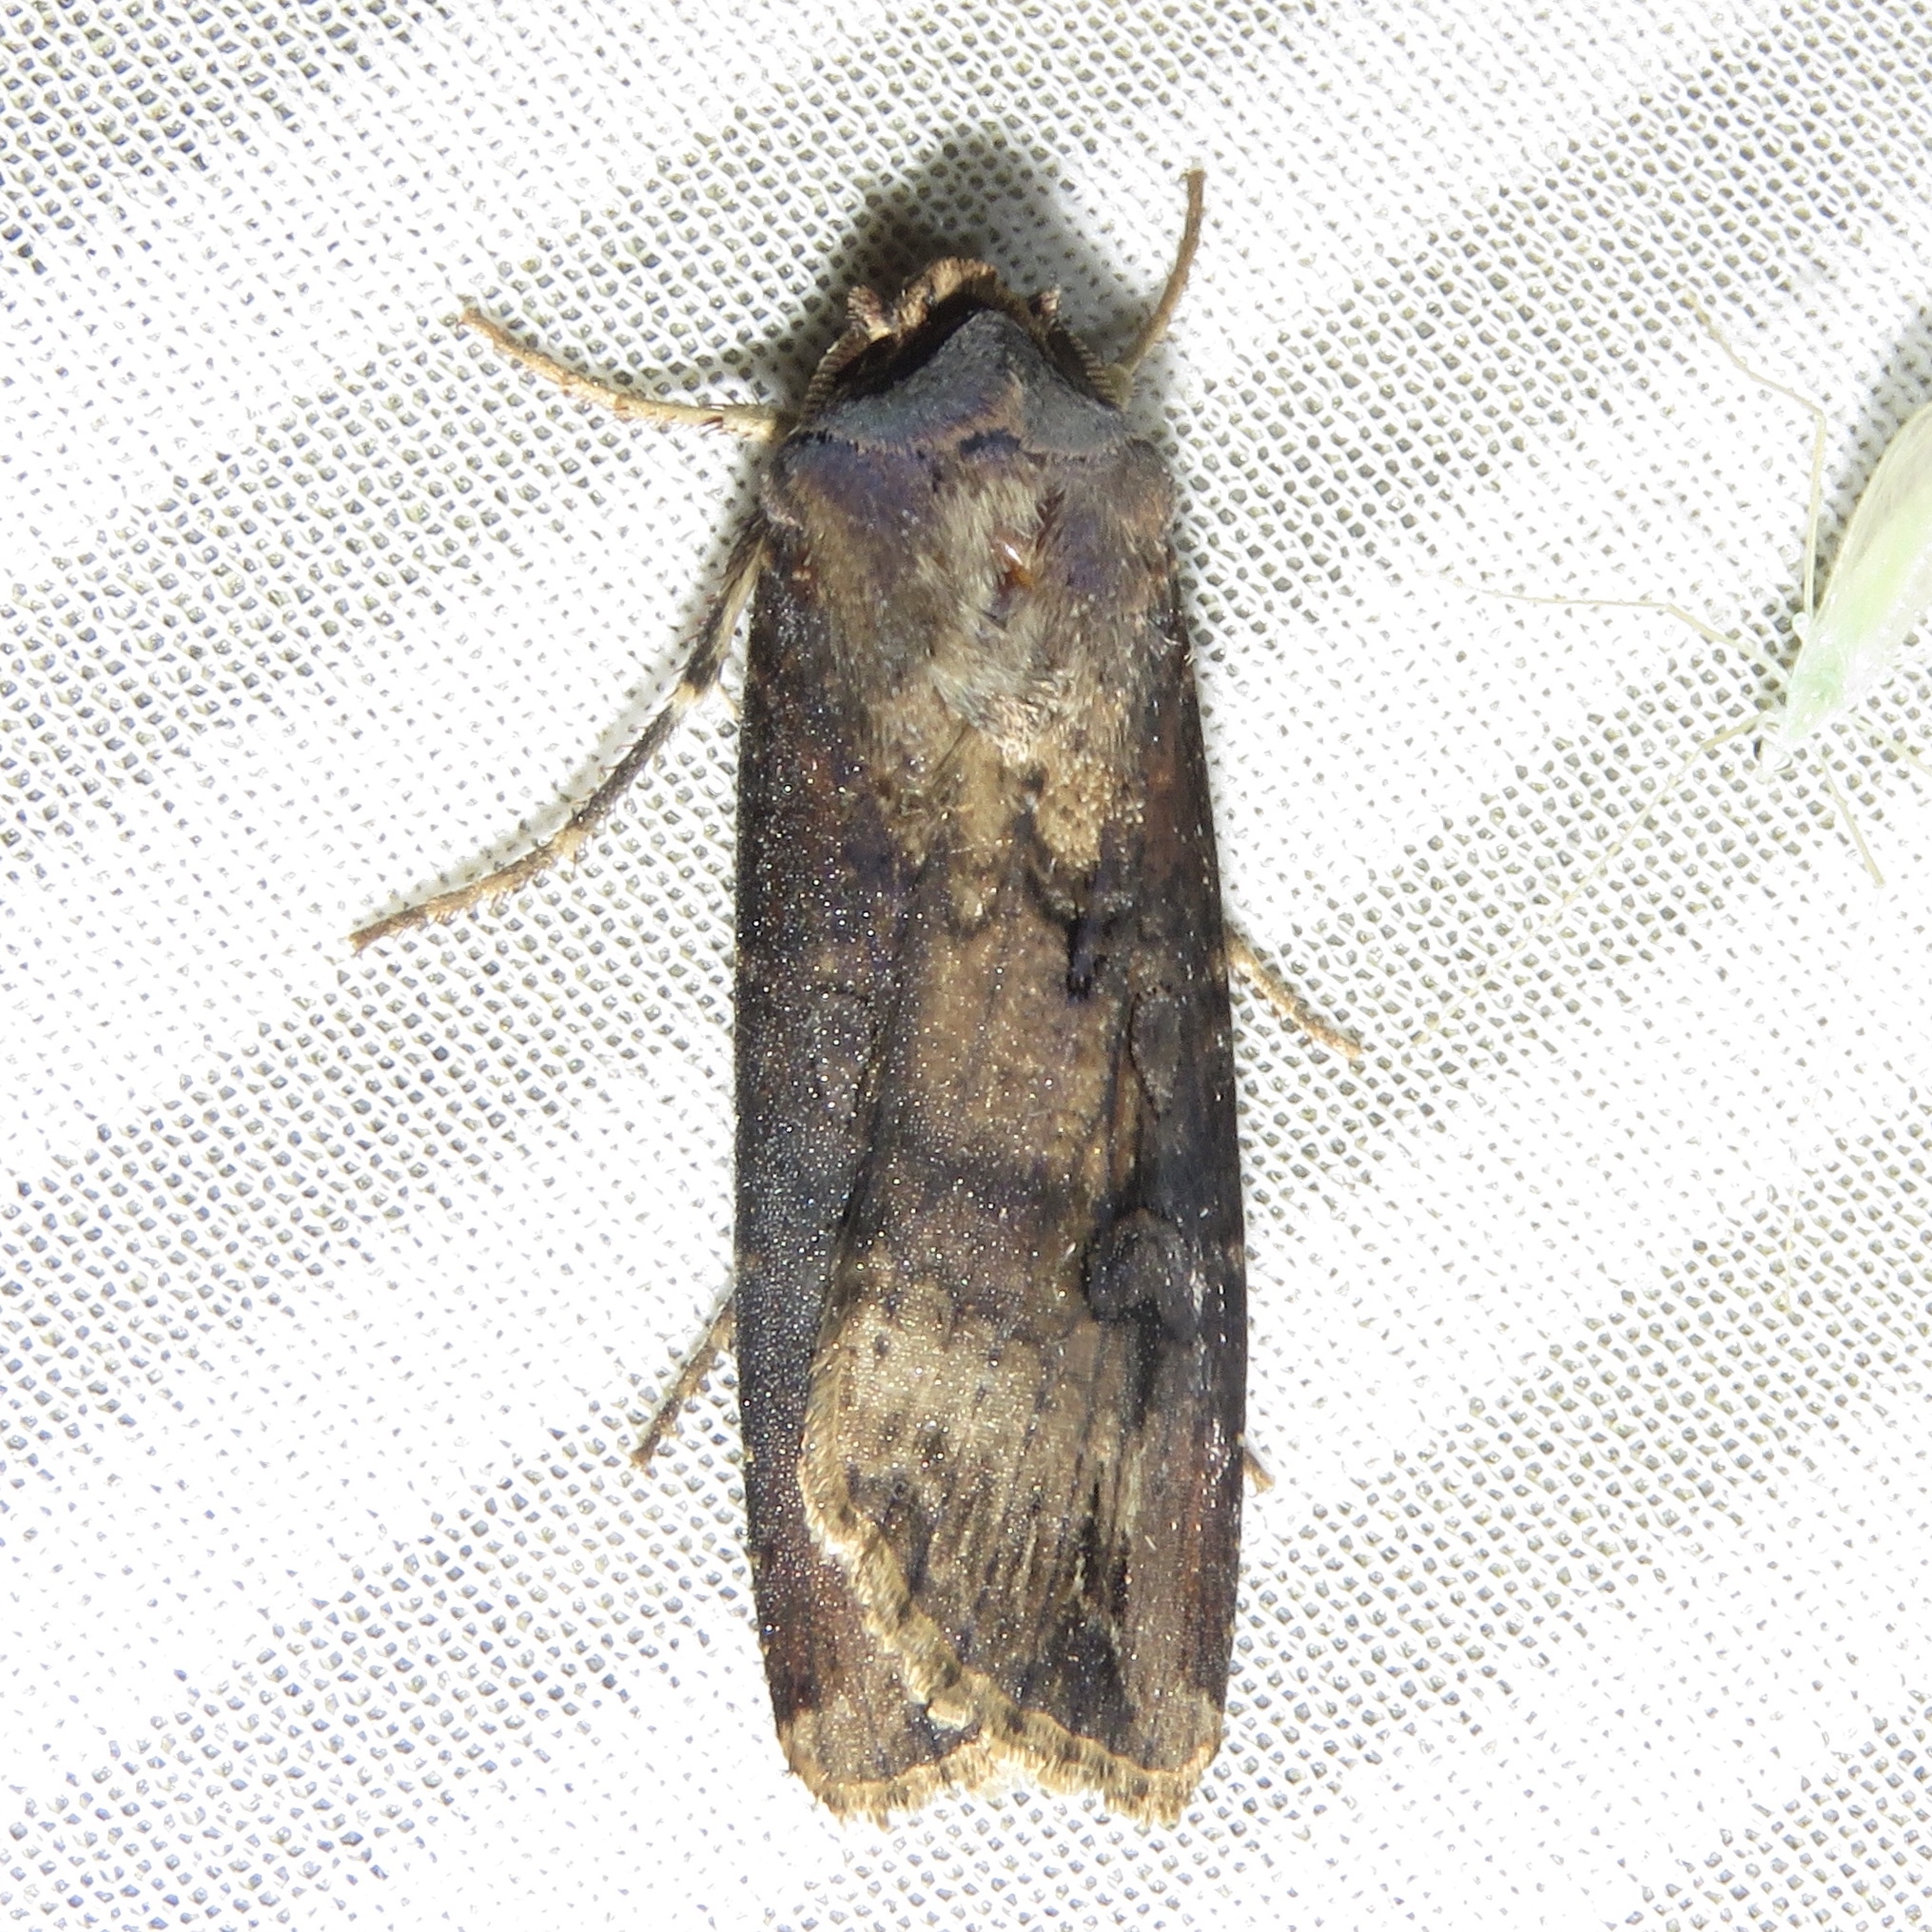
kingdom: Animalia
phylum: Arthropoda
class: Insecta
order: Lepidoptera
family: Noctuidae
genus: Agrotis
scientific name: Agrotis ipsilon
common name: Dark sword-grass
